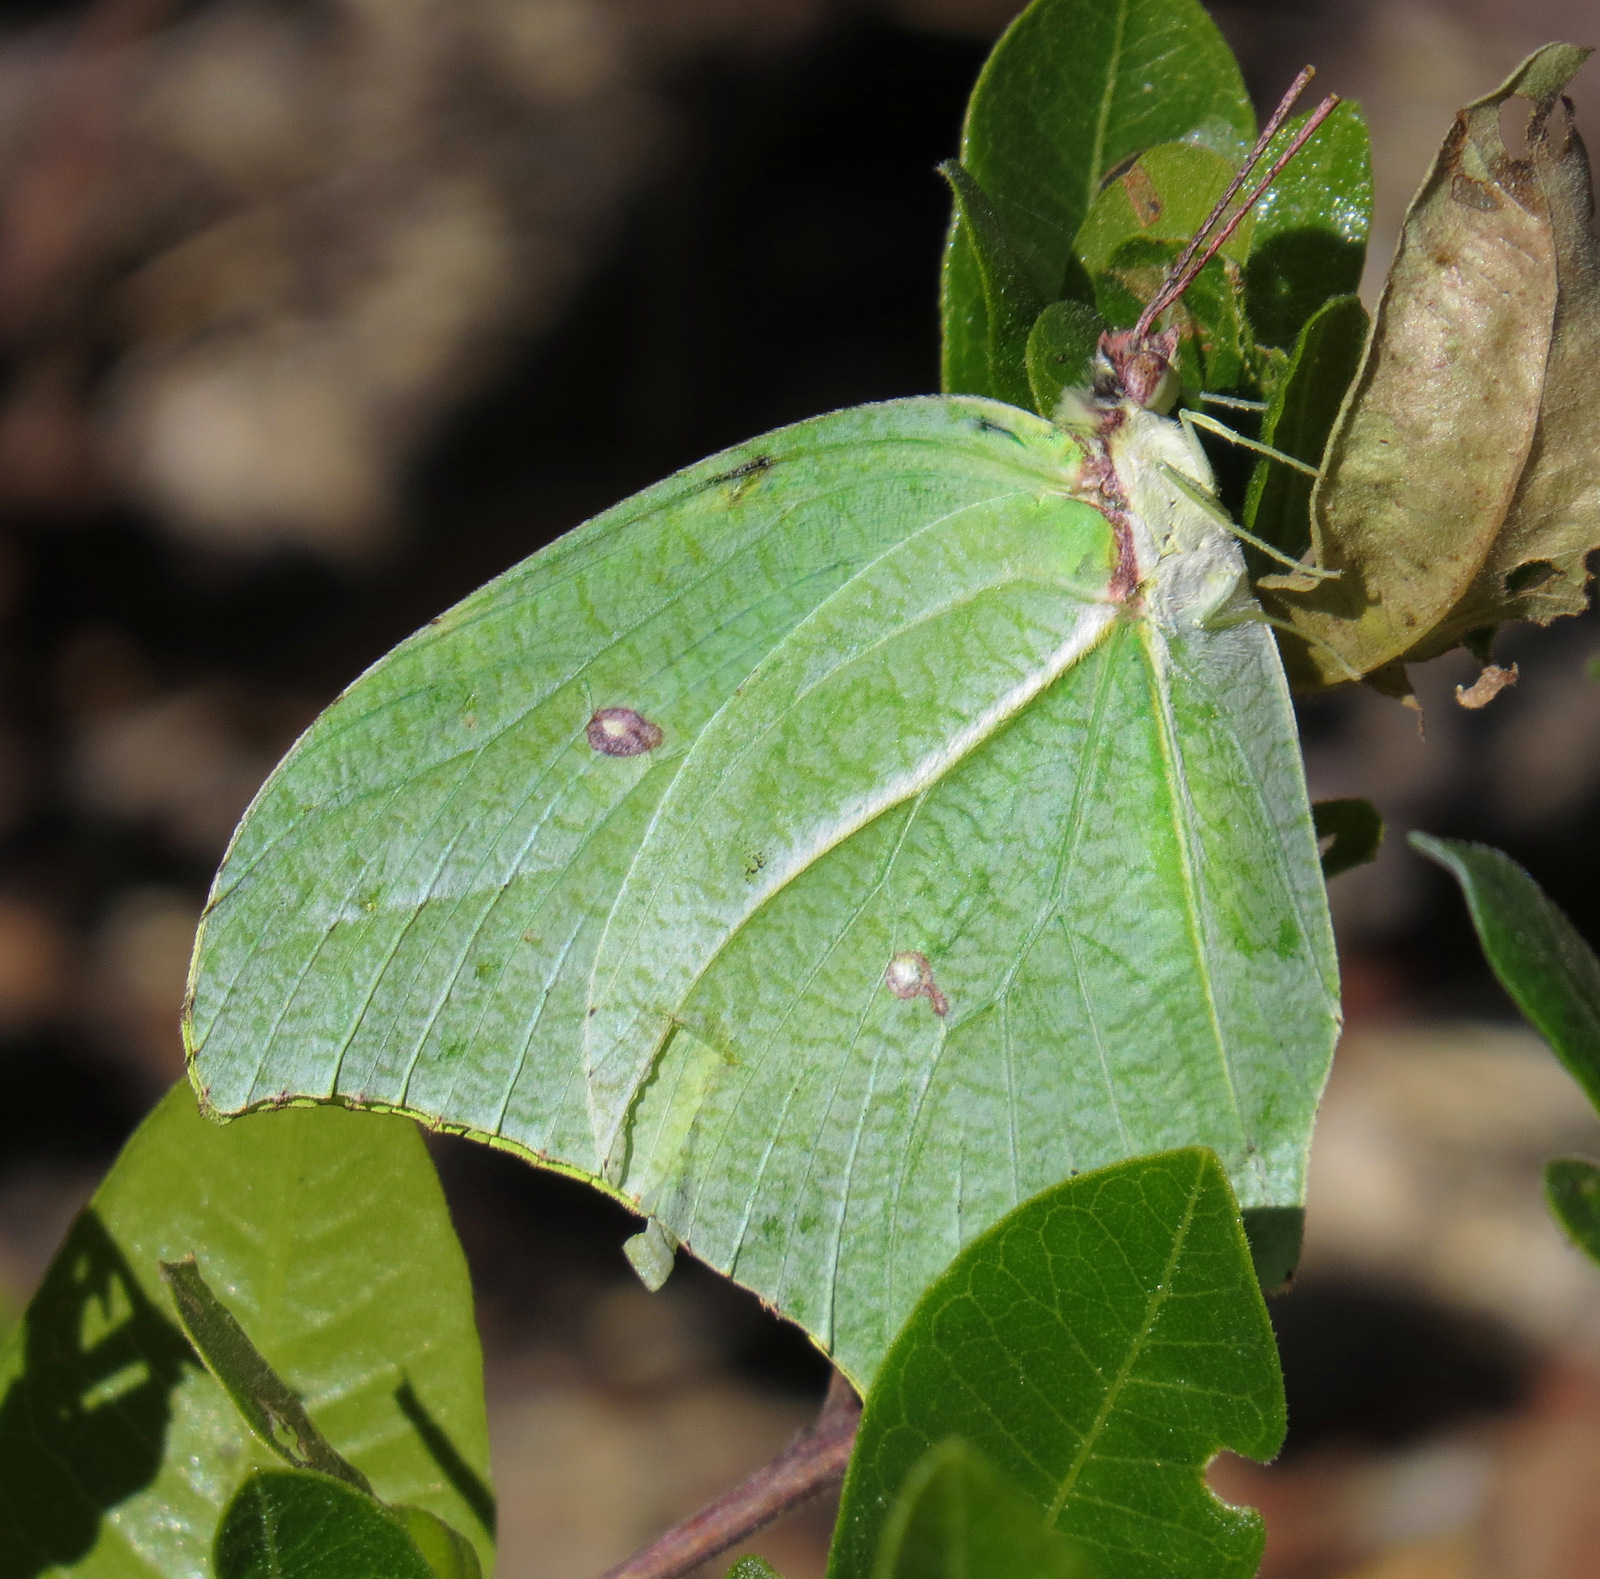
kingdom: Animalia
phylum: Arthropoda
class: Insecta
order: Lepidoptera
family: Pieridae
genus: Anteos
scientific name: Anteos maerula
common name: Angled sulphur
